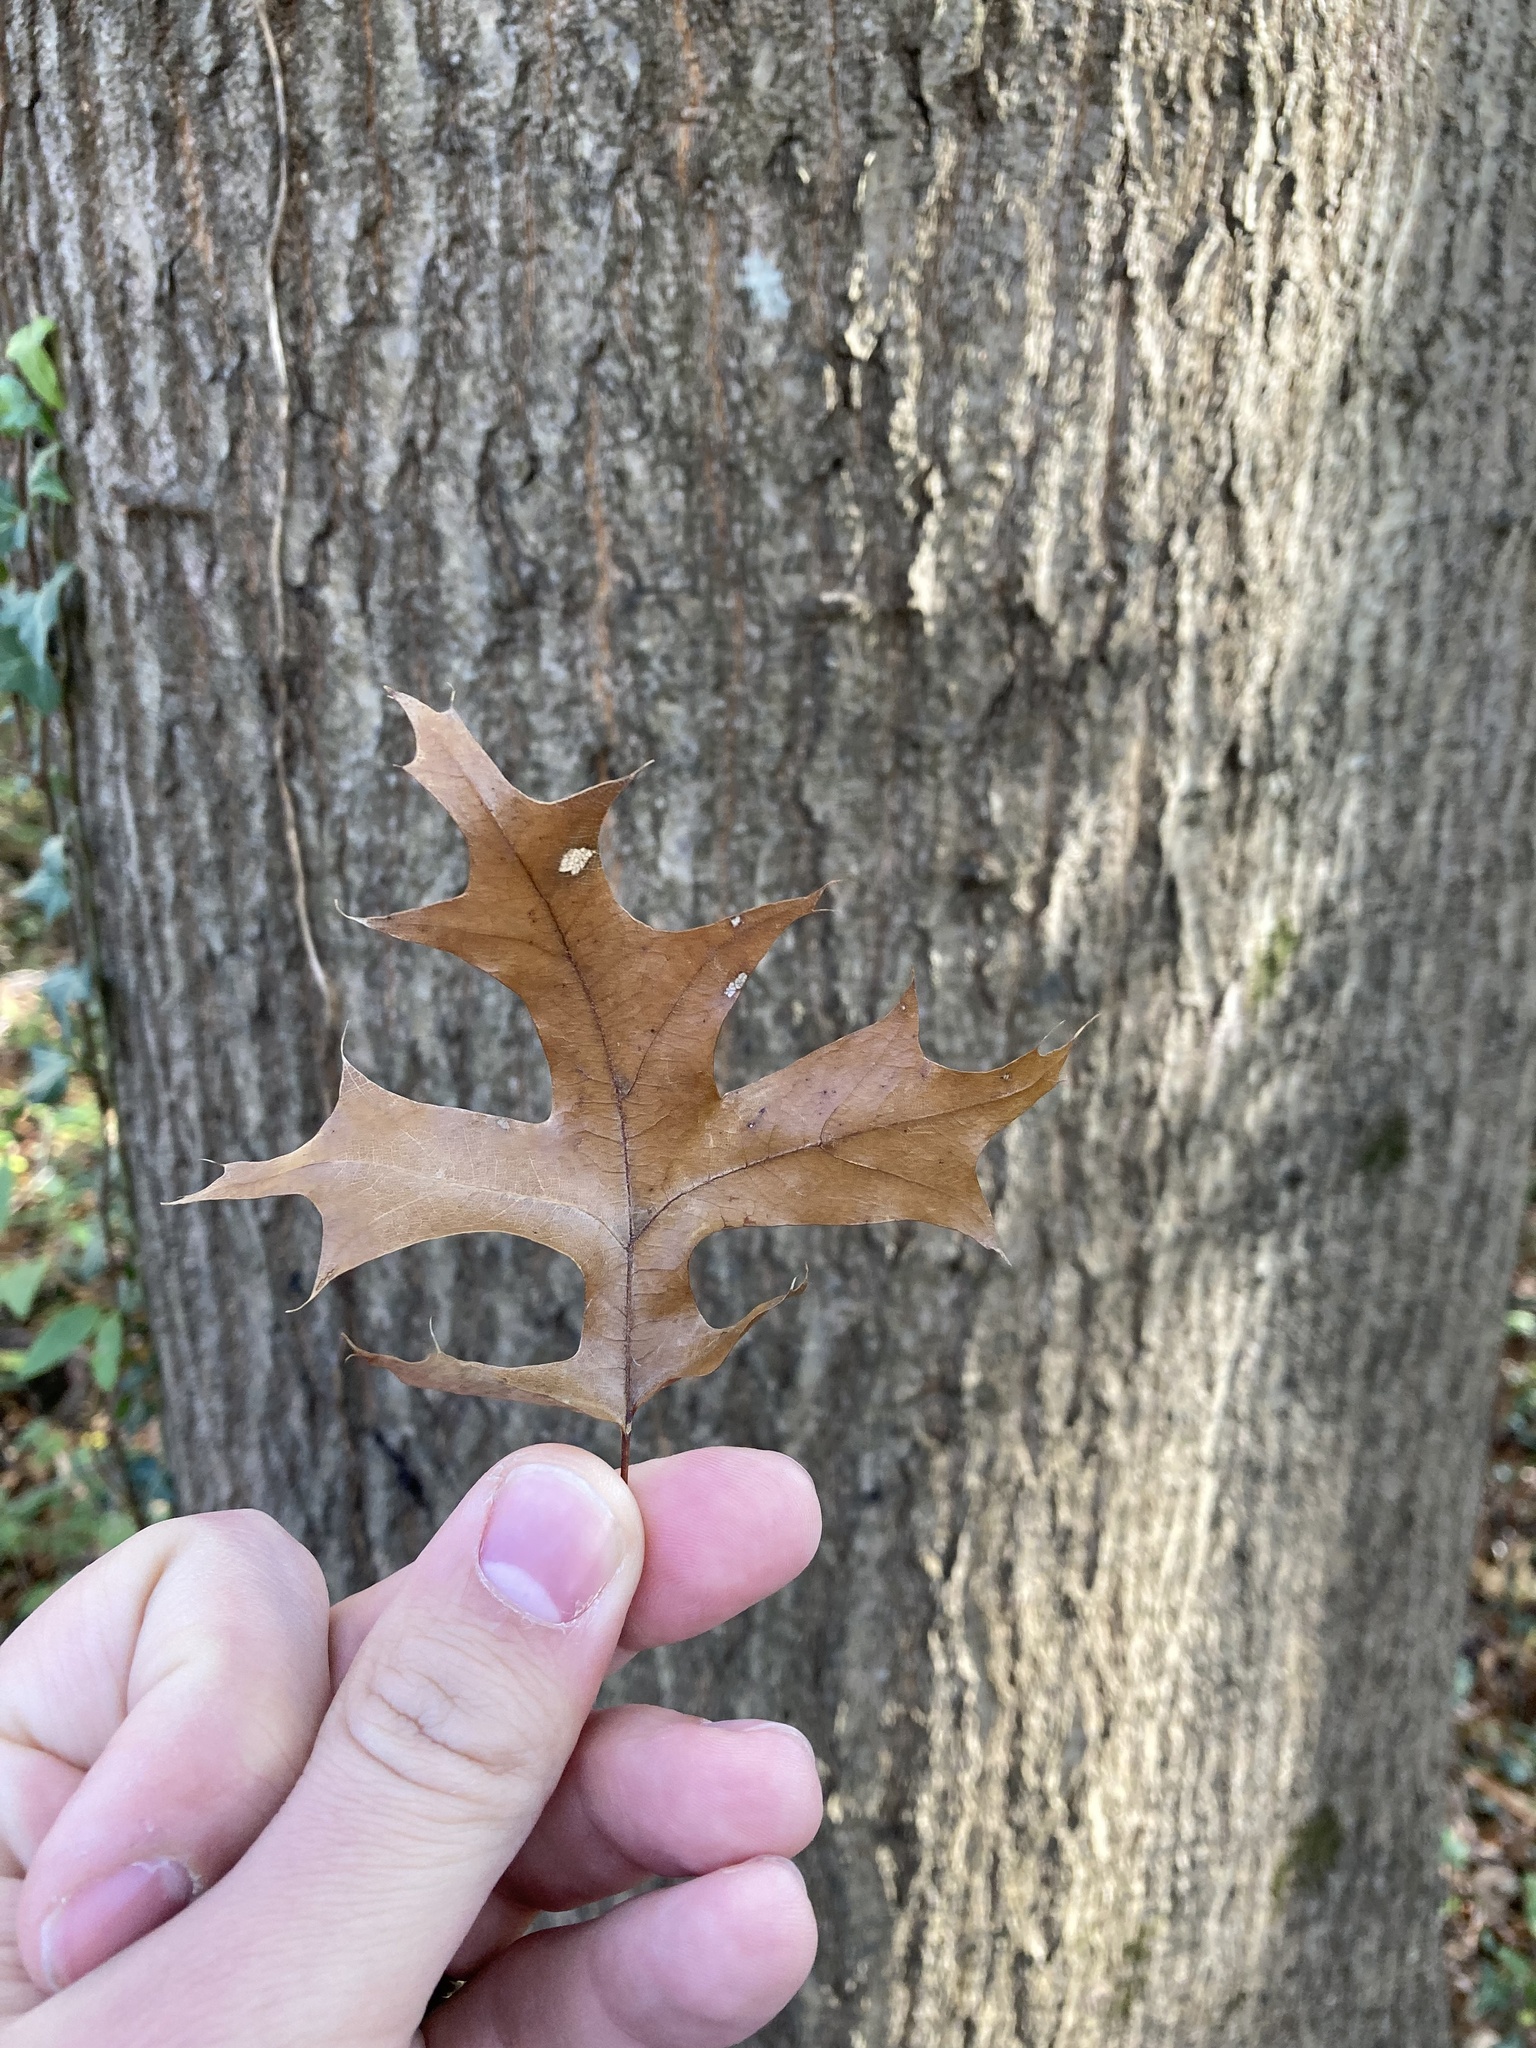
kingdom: Plantae
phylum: Tracheophyta
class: Magnoliopsida
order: Fagales
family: Fagaceae
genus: Quercus
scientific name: Quercus palustris
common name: Pin oak
